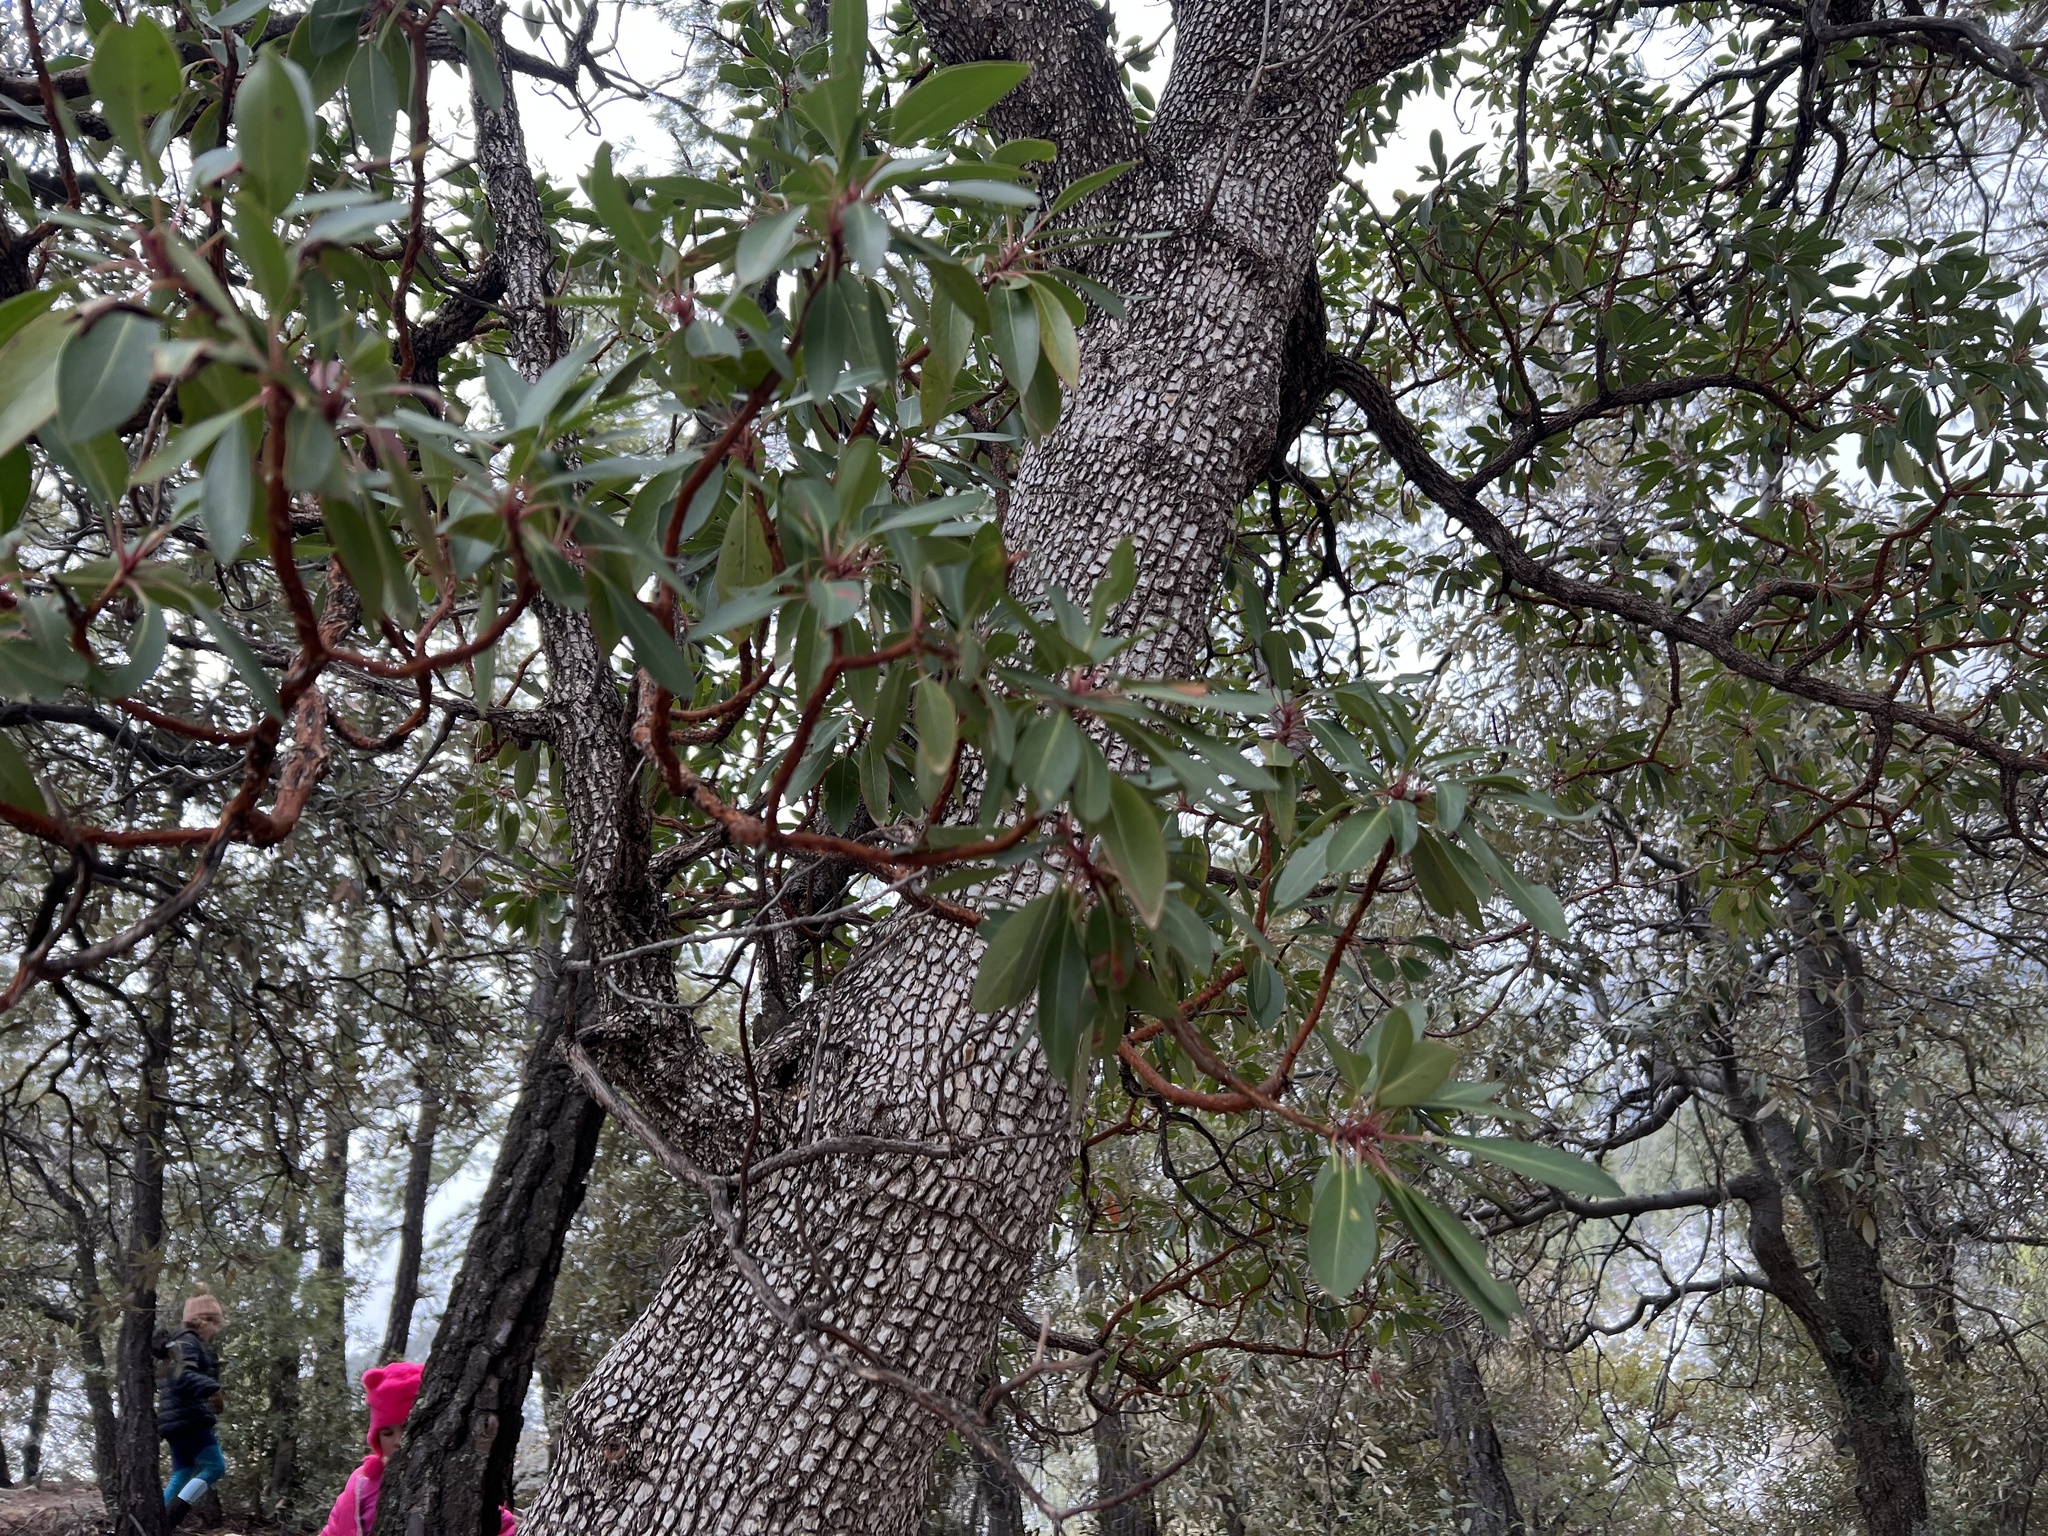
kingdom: Plantae
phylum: Tracheophyta
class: Magnoliopsida
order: Ericales
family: Ericaceae
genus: Arbutus
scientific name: Arbutus arizonica
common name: Arizona madrone
